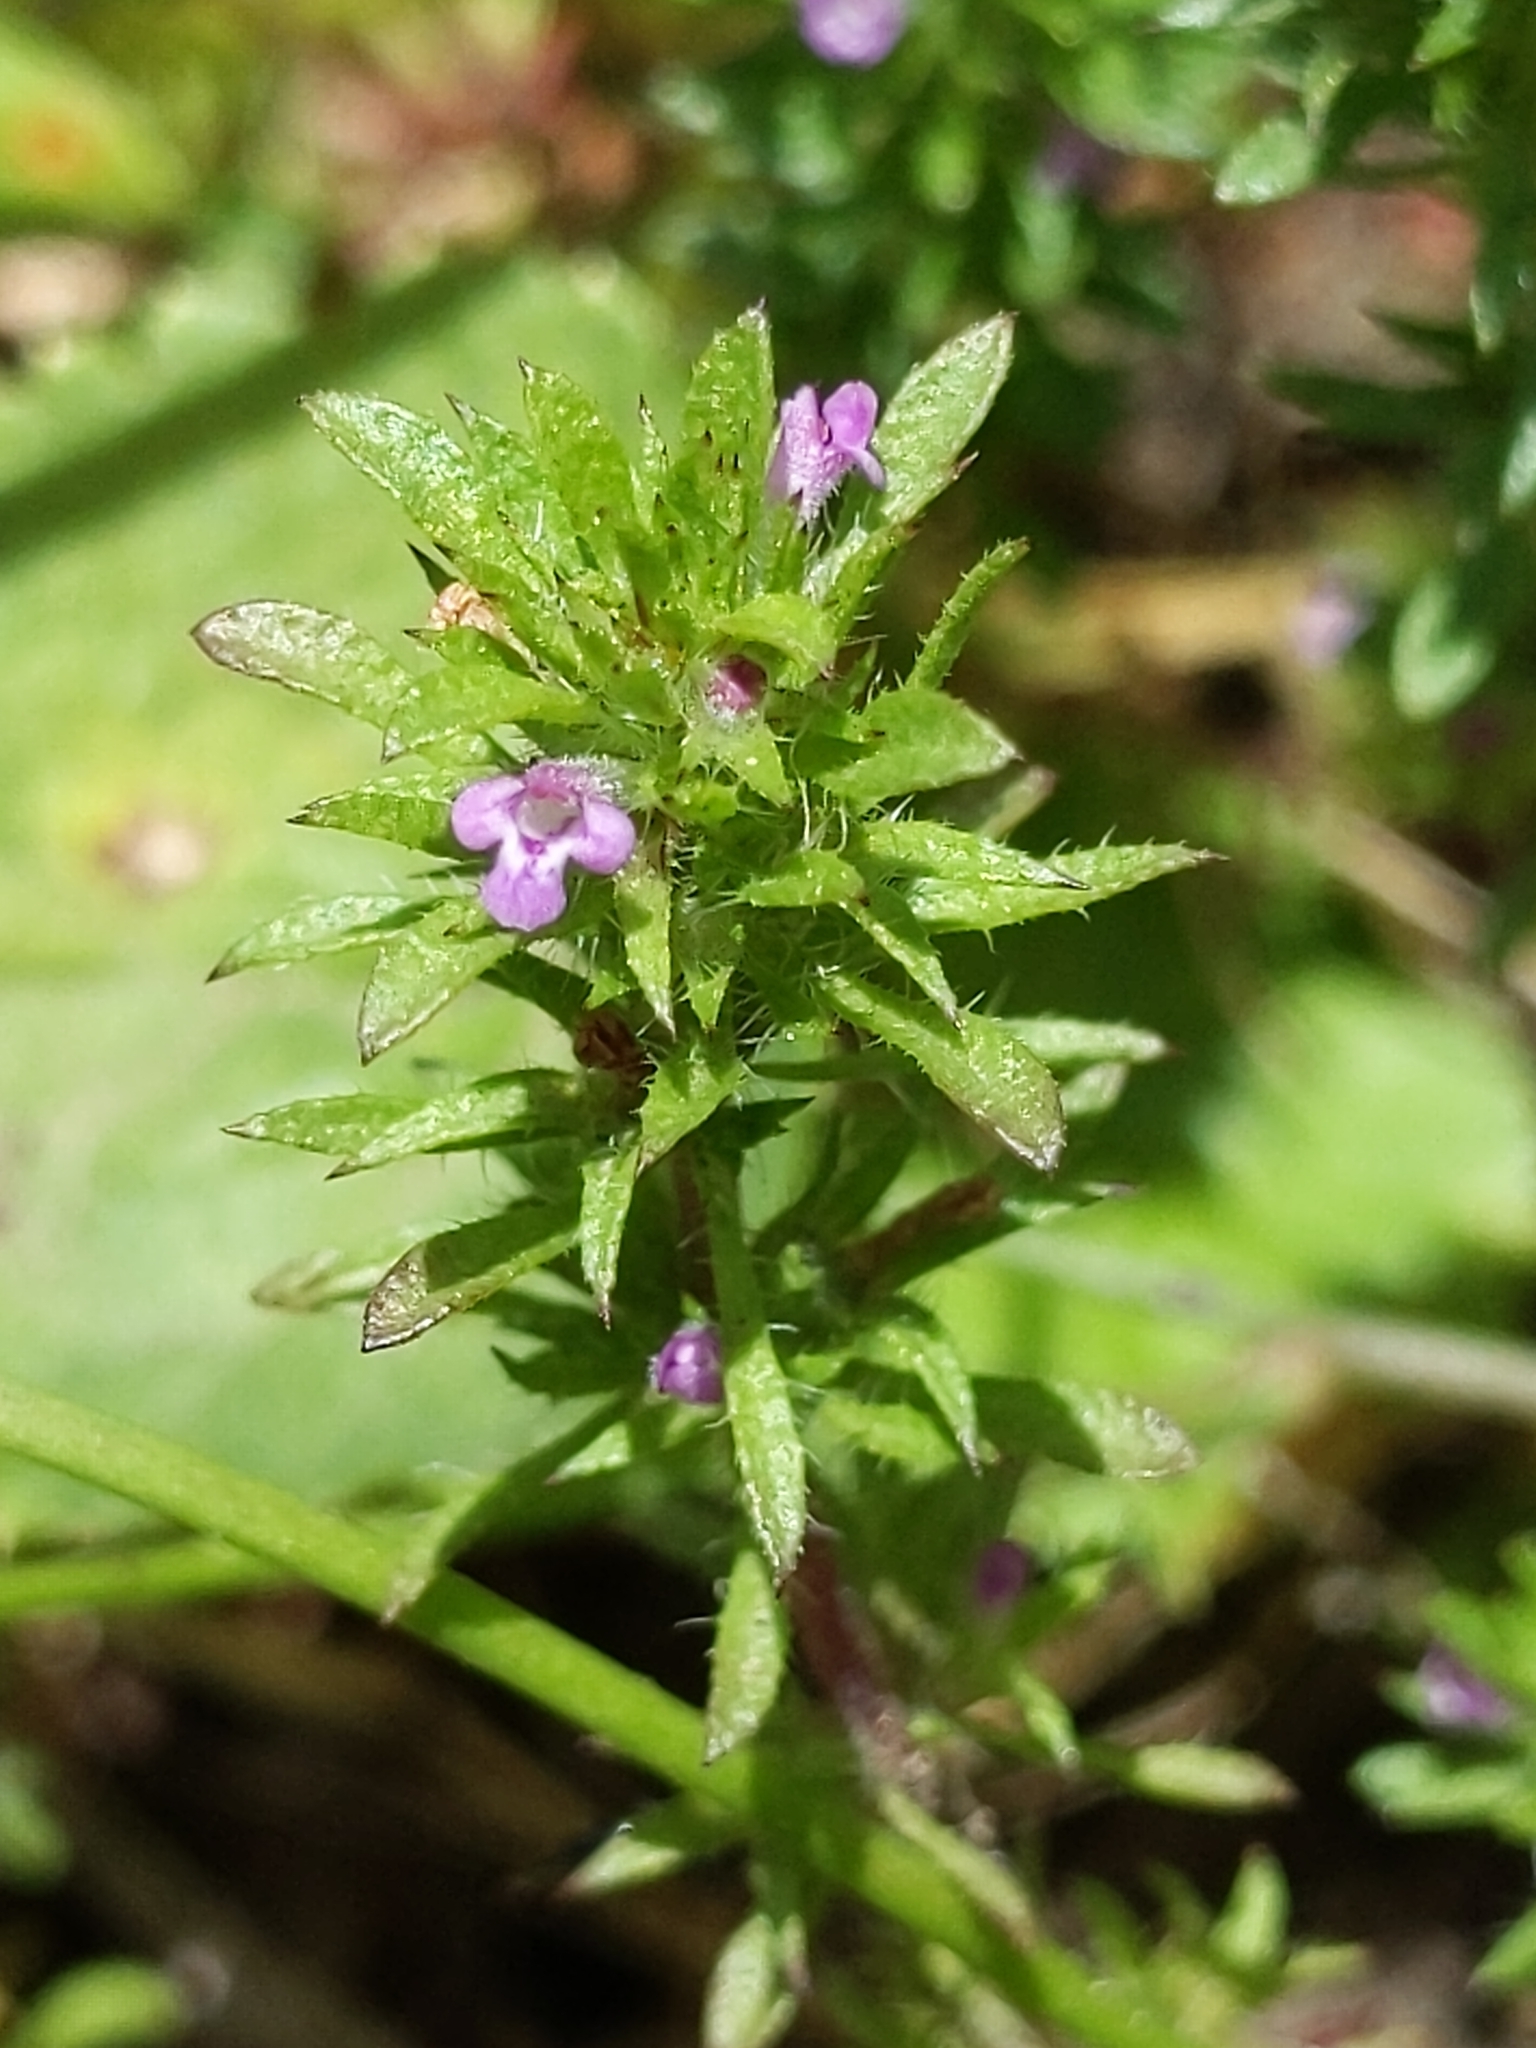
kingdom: Plantae
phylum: Tracheophyta
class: Magnoliopsida
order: Lamiales
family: Lamiaceae
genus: Pogogyne
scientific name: Pogogyne serpylloides
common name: Thymeleaf mesamint
